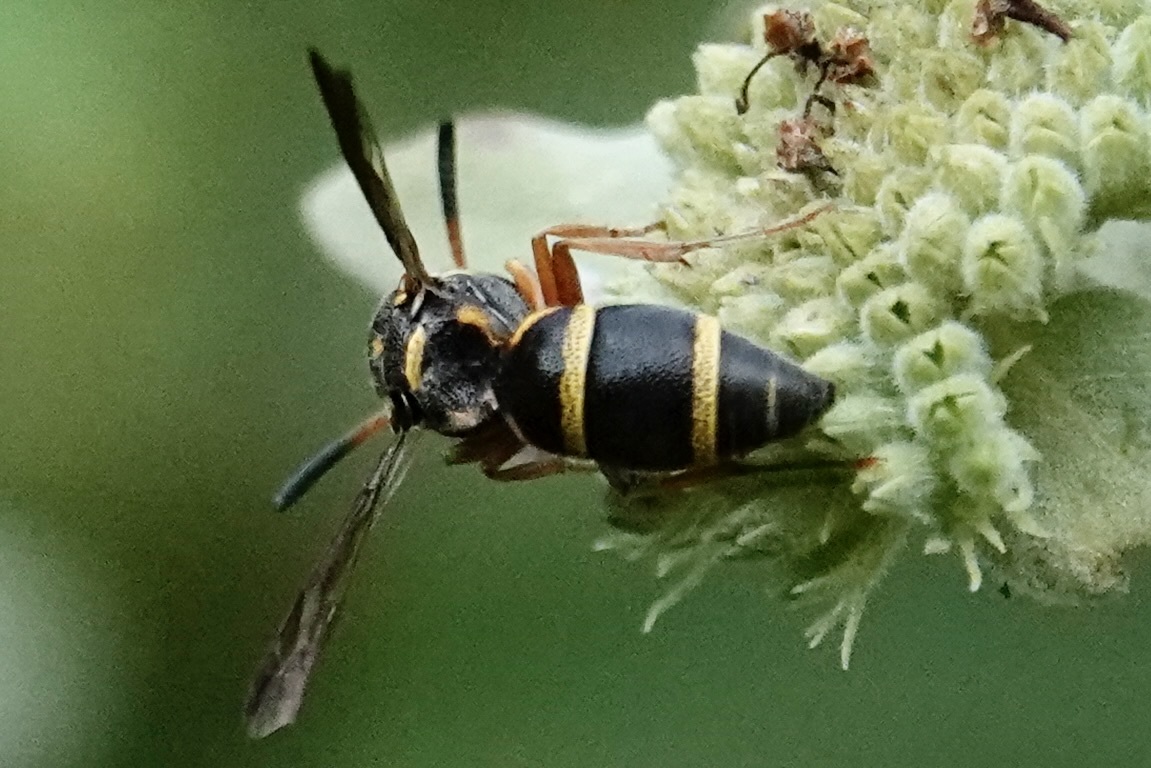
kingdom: Animalia
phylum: Arthropoda
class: Insecta
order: Hymenoptera
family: Eumenidae
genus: Parancistrocerus
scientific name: Parancistrocerus fulvipes
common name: Potter wasp
